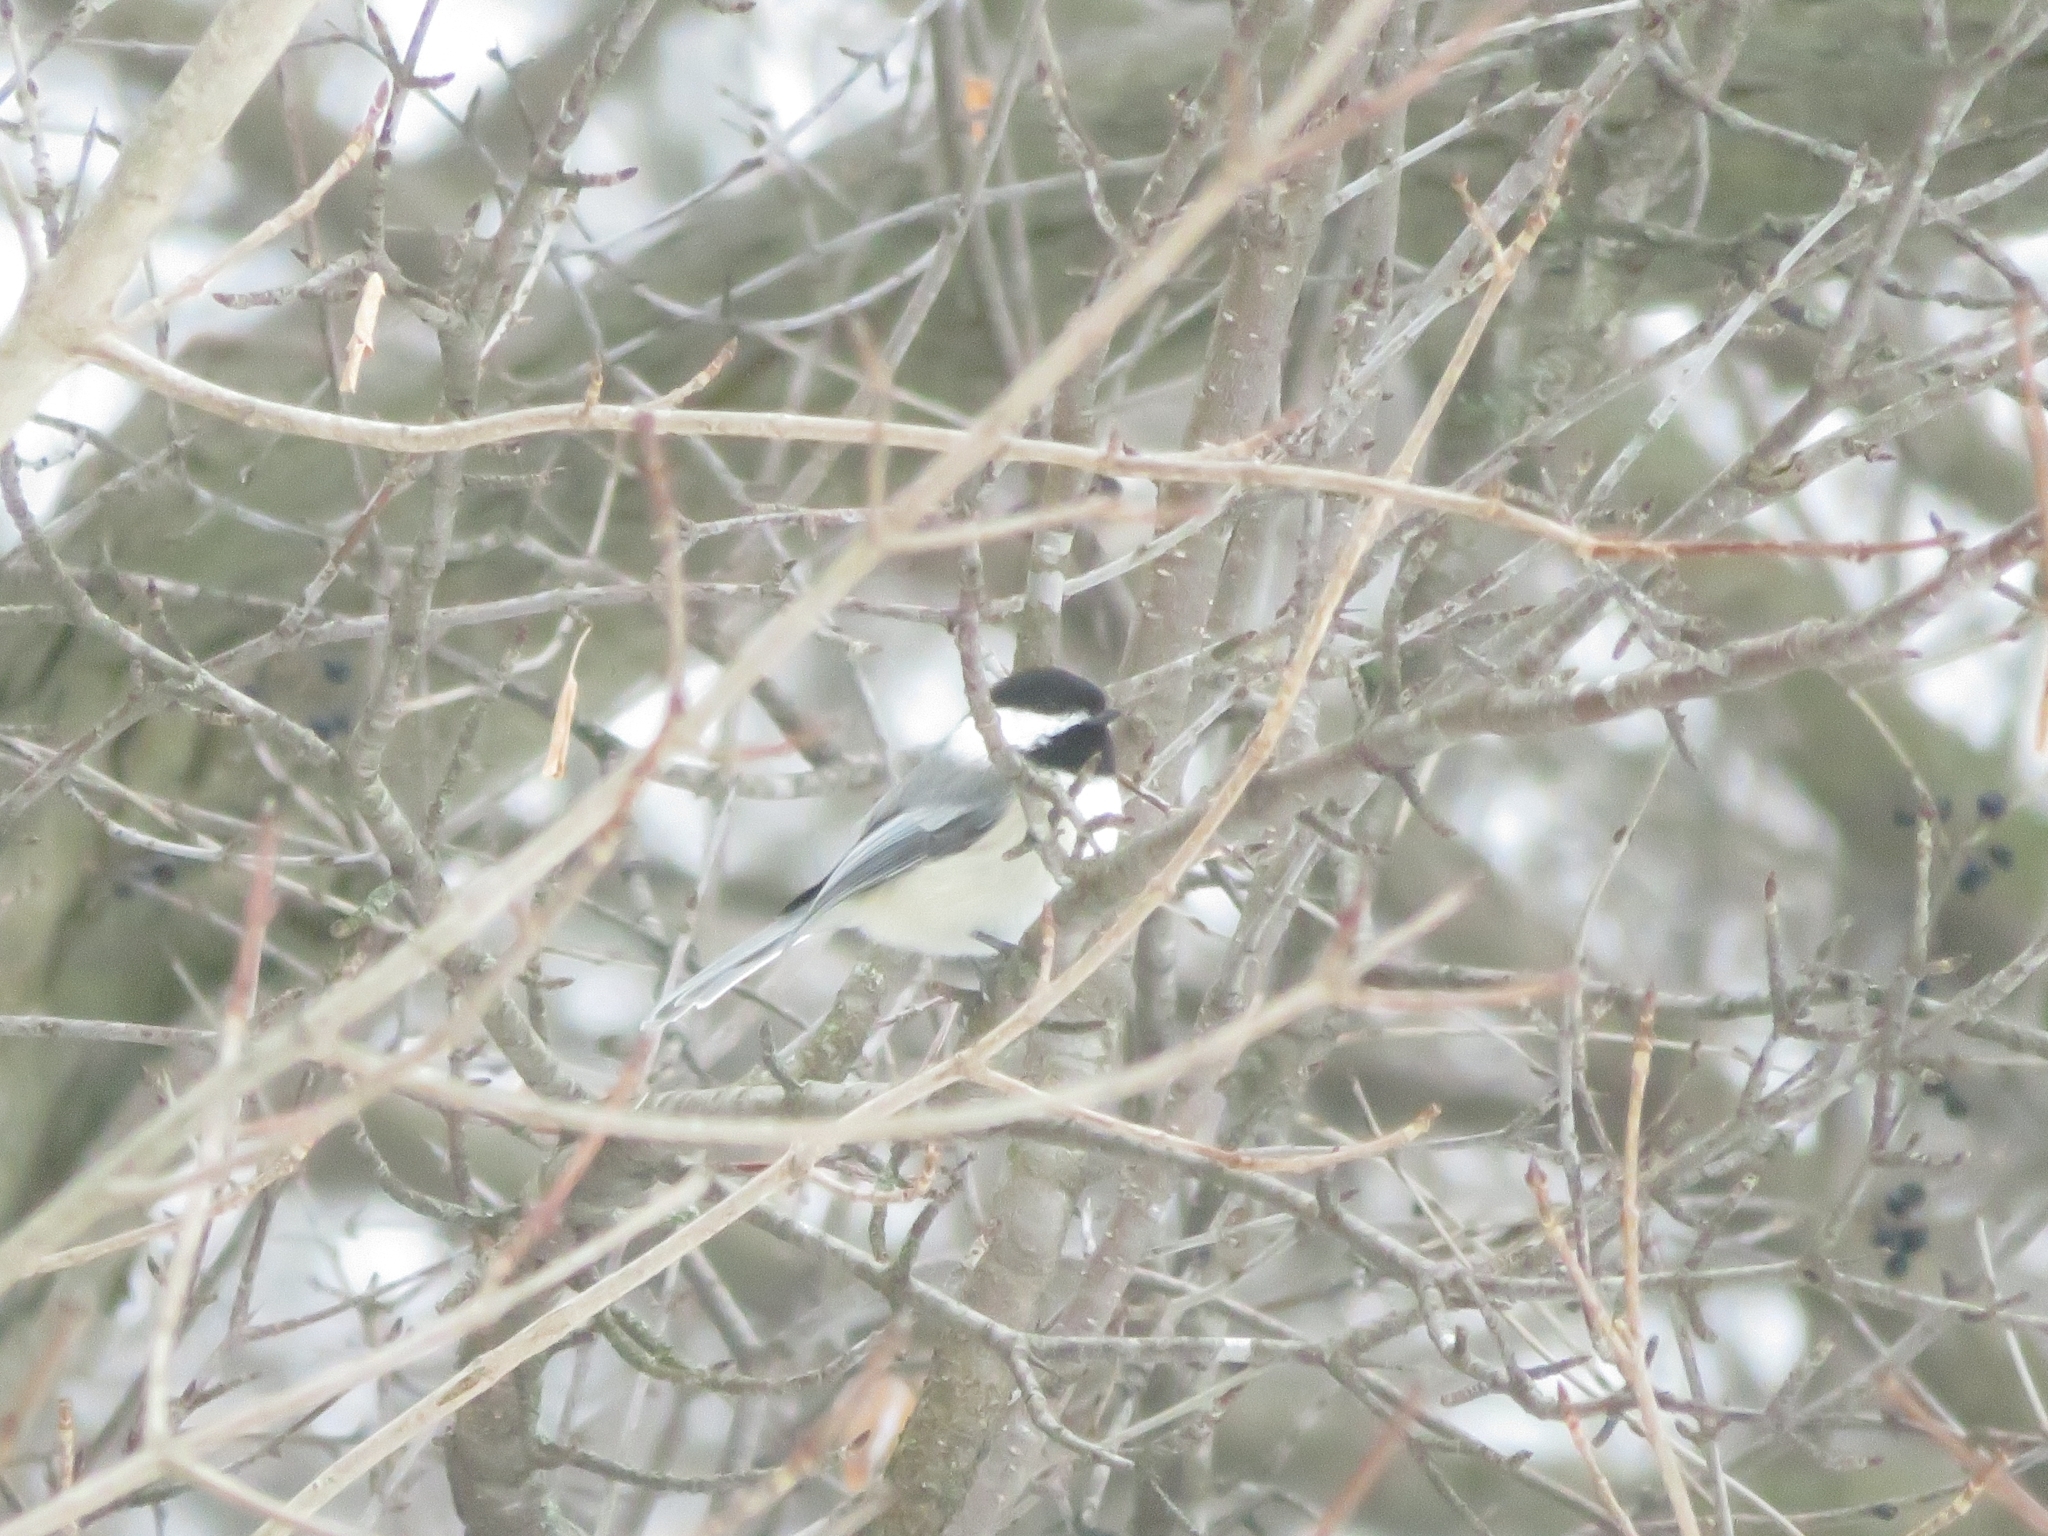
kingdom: Animalia
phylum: Chordata
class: Aves
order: Passeriformes
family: Paridae
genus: Poecile
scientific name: Poecile atricapillus
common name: Black-capped chickadee
